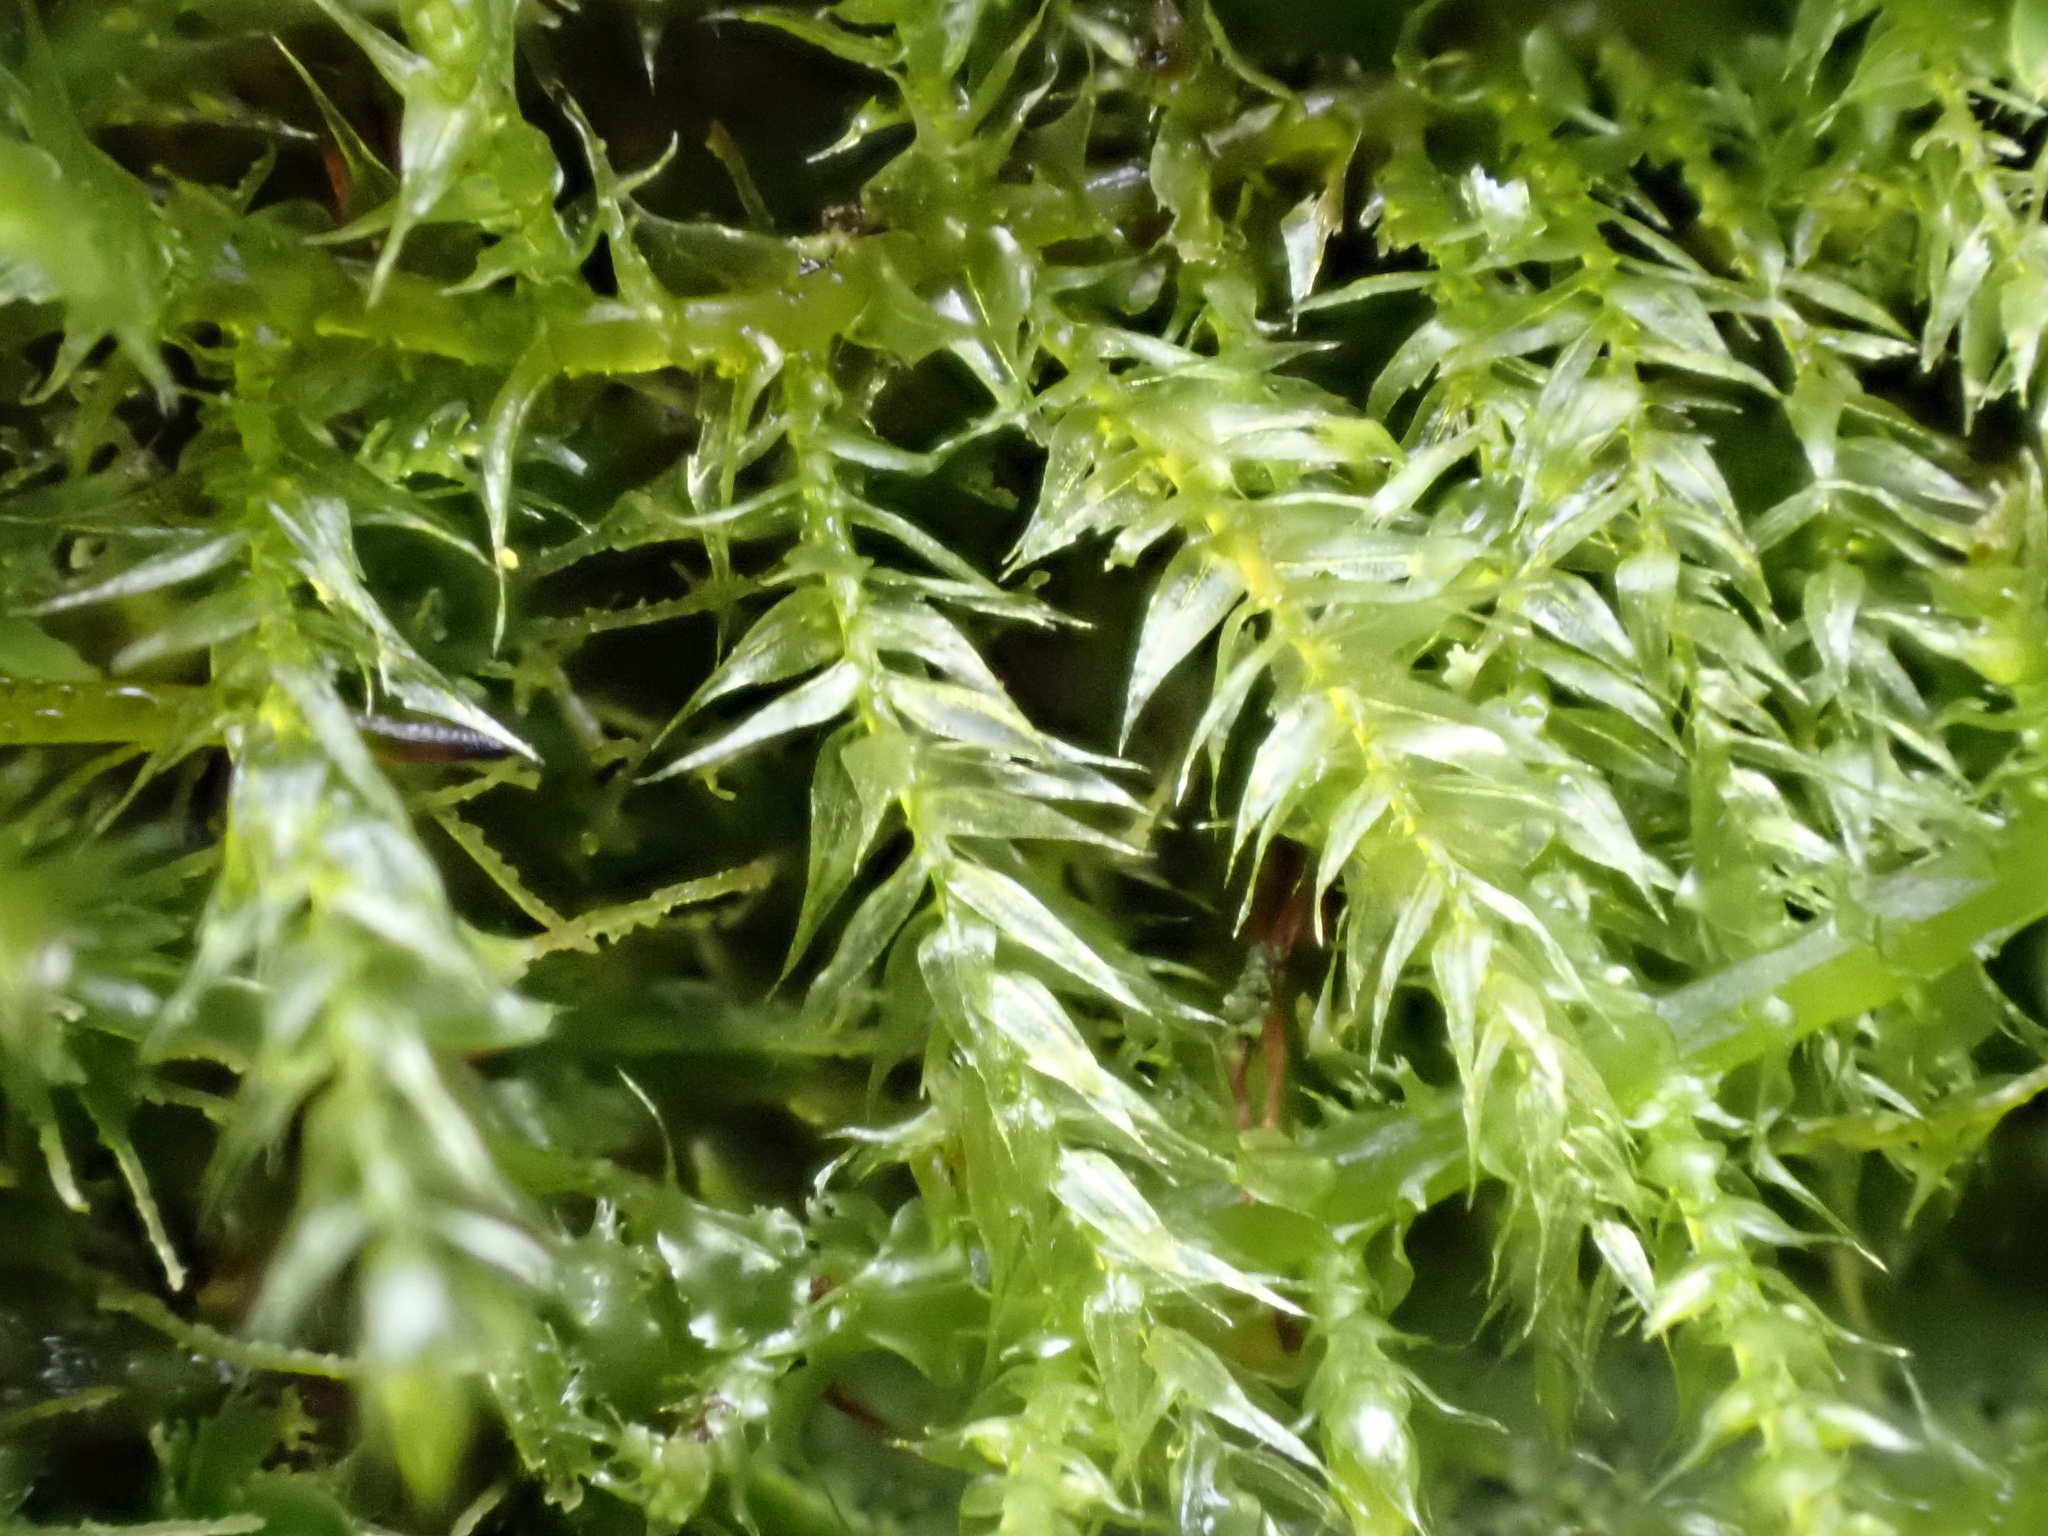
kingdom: Plantae
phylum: Bryophyta
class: Bryopsida
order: Hypnales
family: Brachytheciaceae
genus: Kindbergia
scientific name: Kindbergia praelonga
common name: Slender beaked moss
